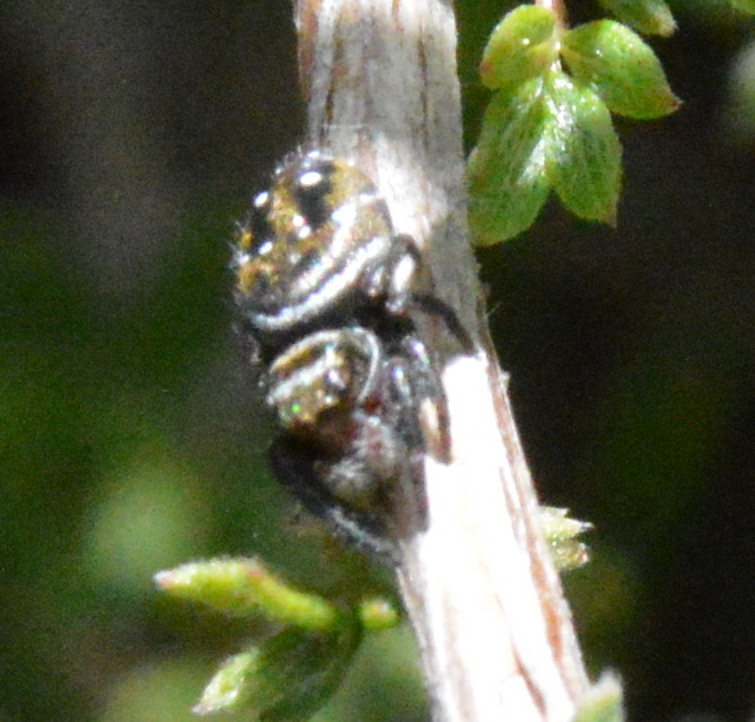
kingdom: Animalia
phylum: Arthropoda
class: Arachnida
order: Araneae
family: Salticidae
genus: Phidippus
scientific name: Phidippus clarus
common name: Brilliant jumping spider
